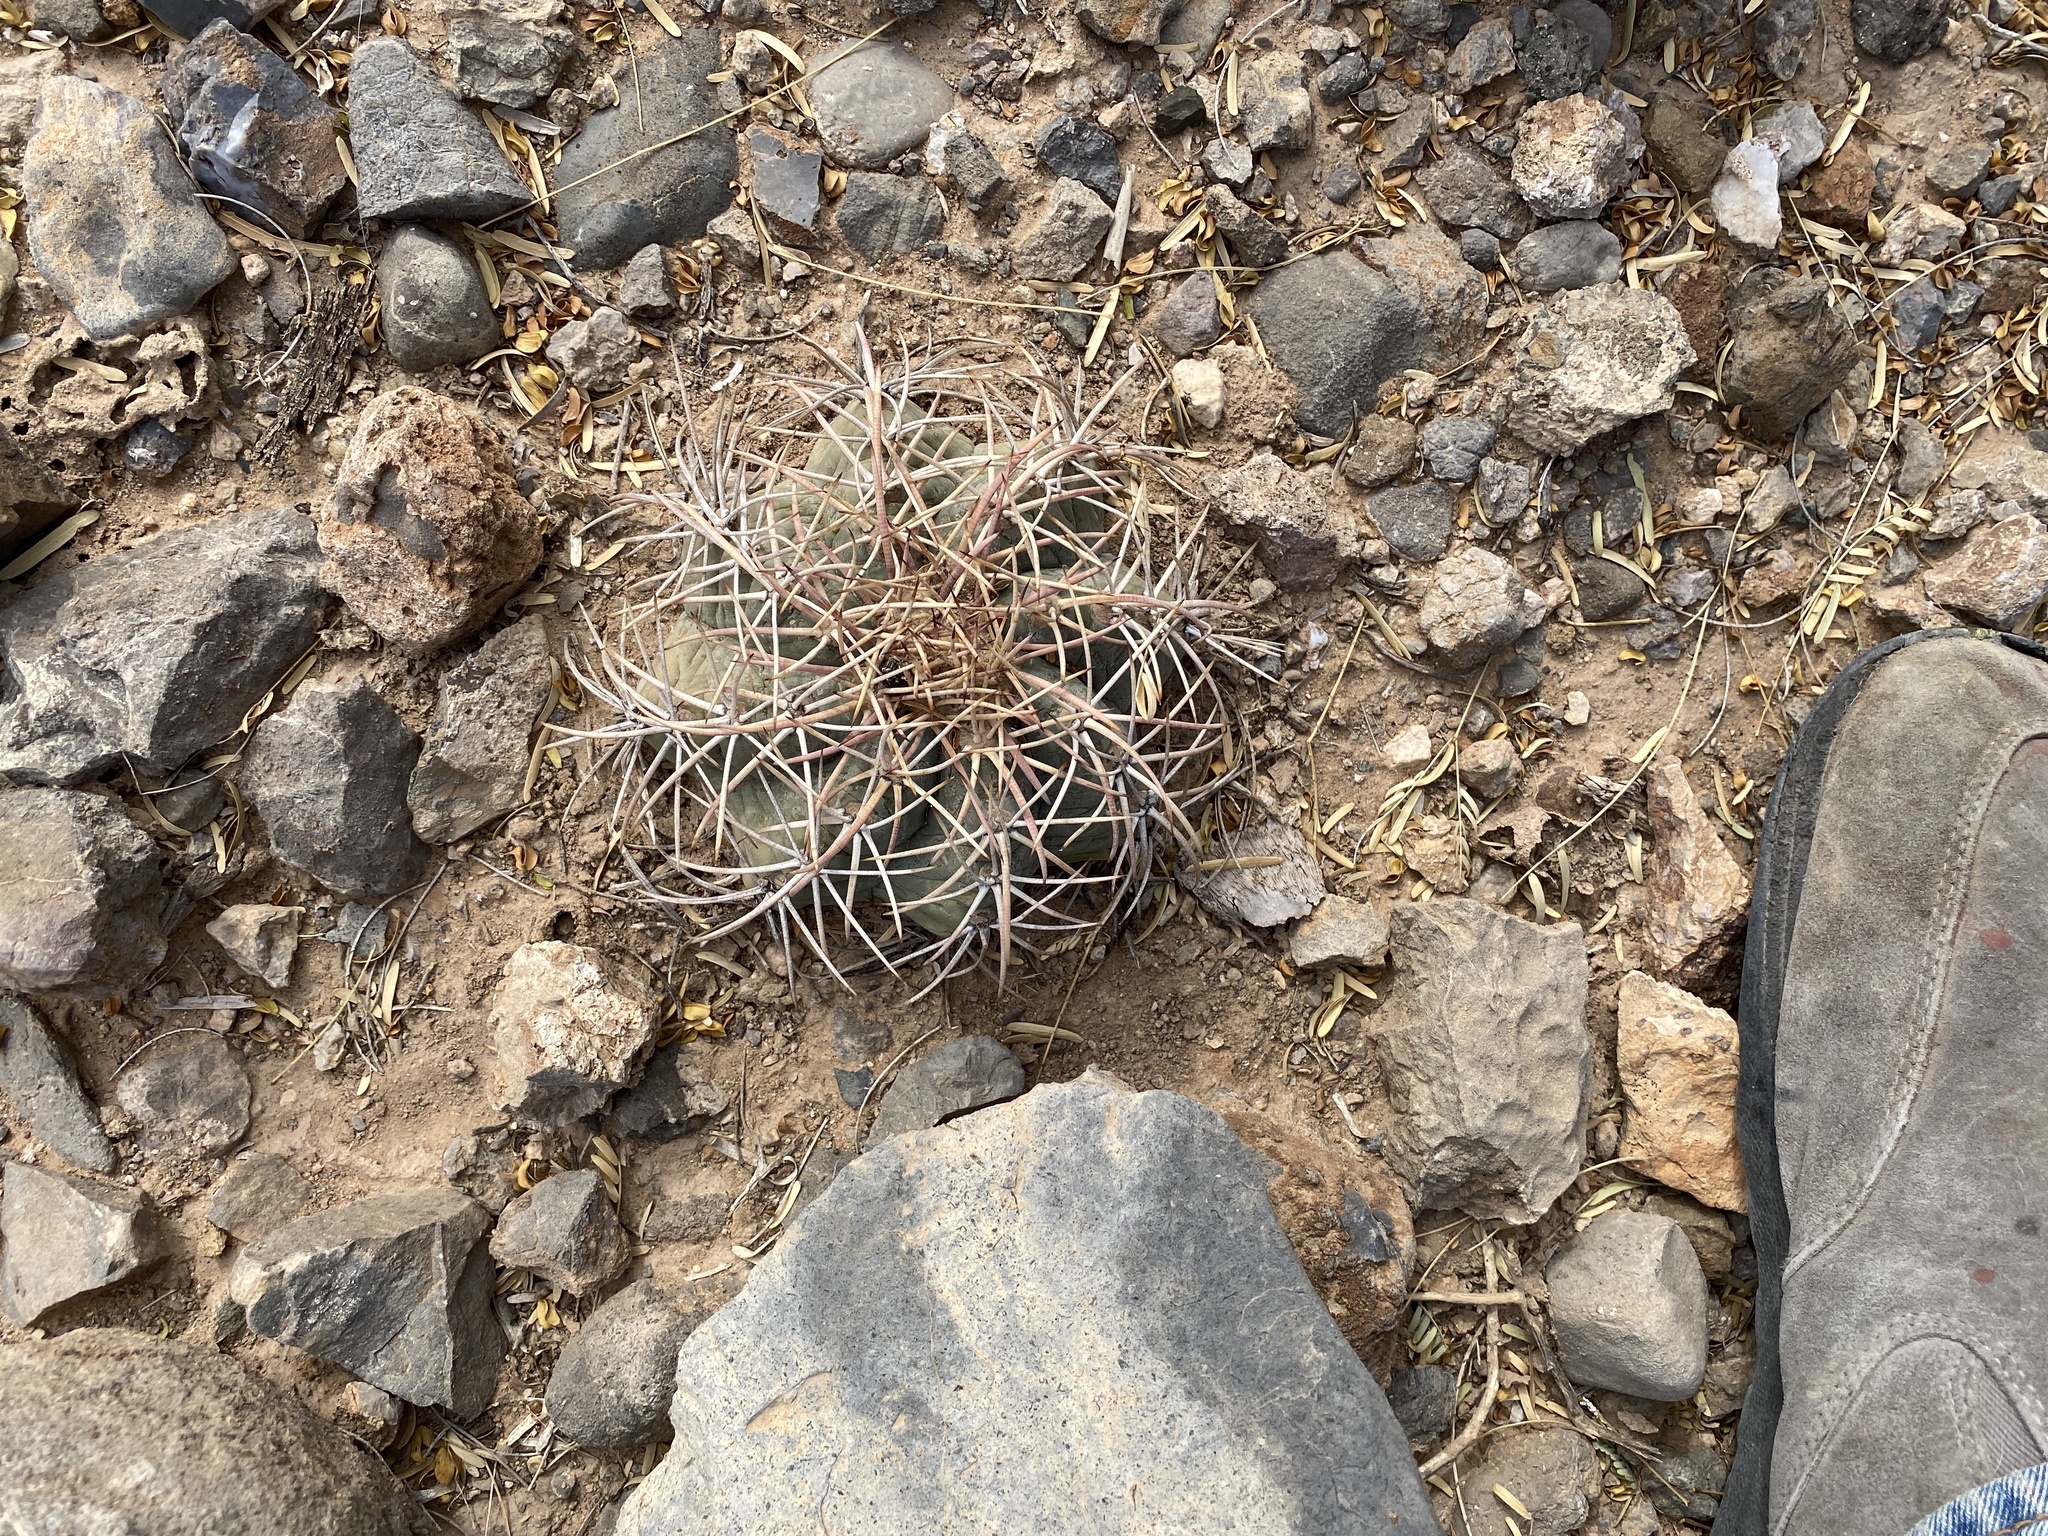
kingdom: Plantae
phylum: Tracheophyta
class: Magnoliopsida
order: Caryophyllales
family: Cactaceae
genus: Echinocactus
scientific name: Echinocactus horizonthalonius
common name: Devilshead
